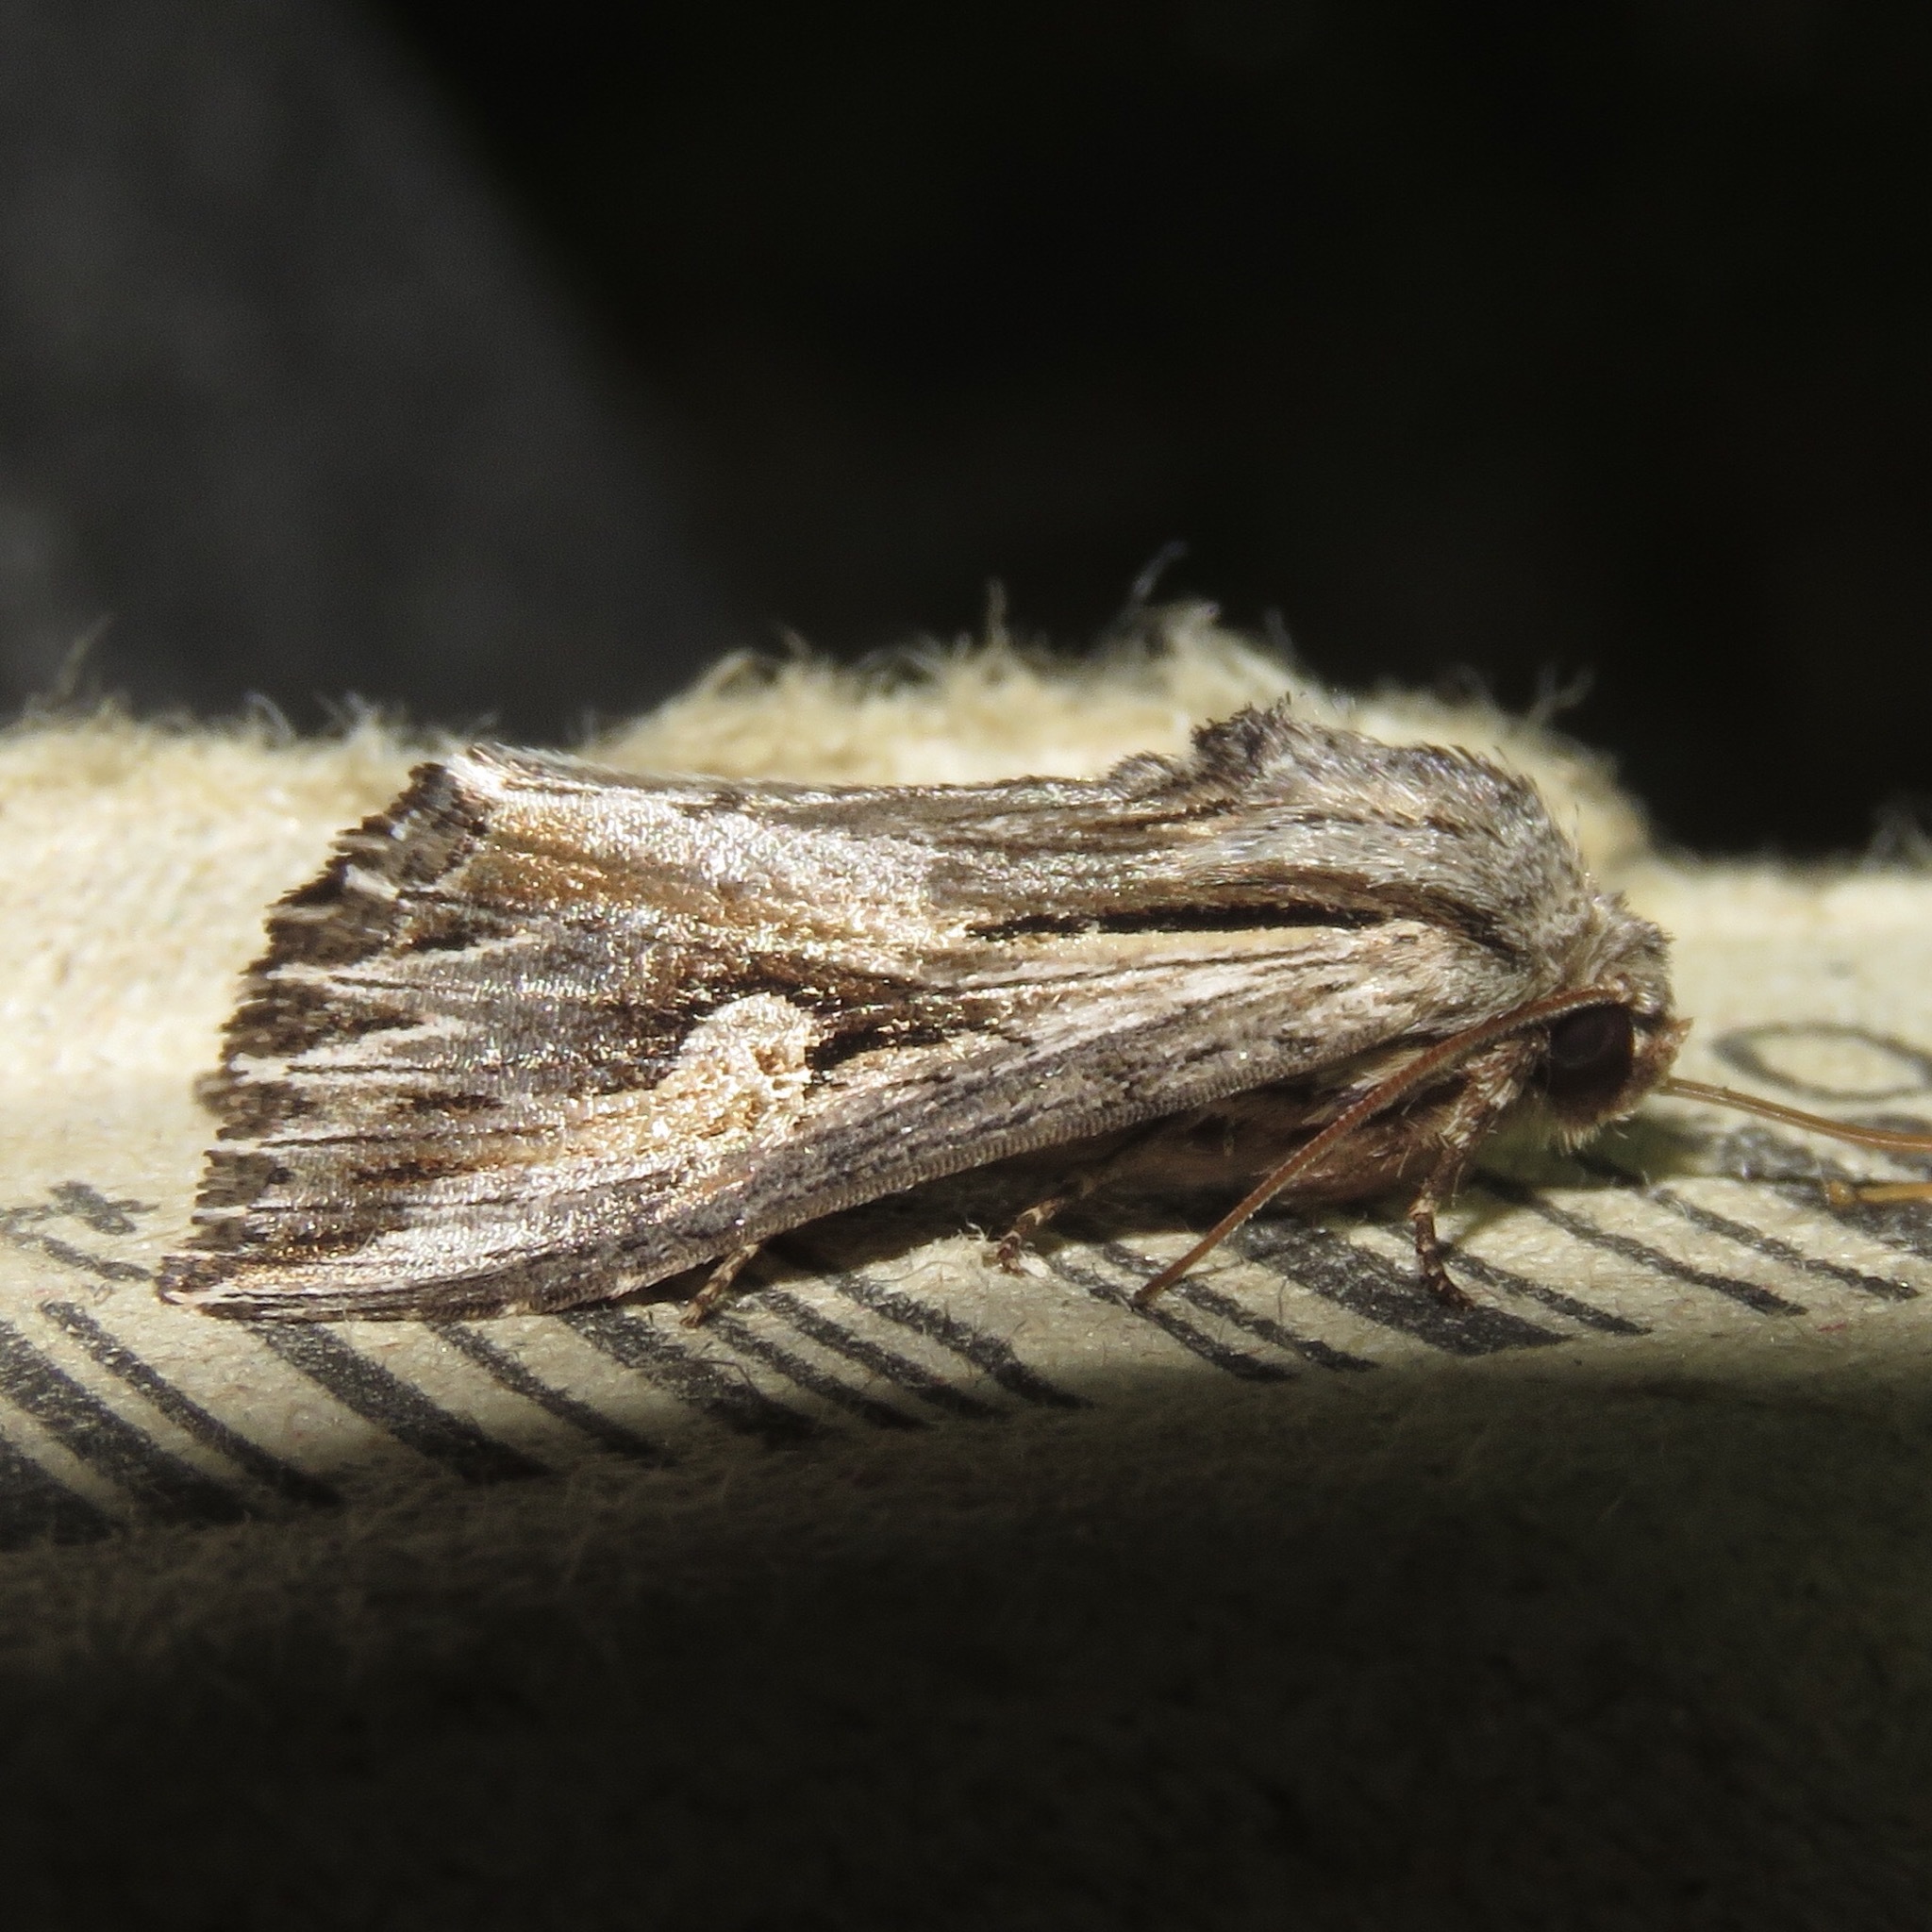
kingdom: Animalia
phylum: Arthropoda
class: Insecta
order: Lepidoptera
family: Noctuidae
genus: Nedra
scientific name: Nedra ramosula
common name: Gray half-spot
